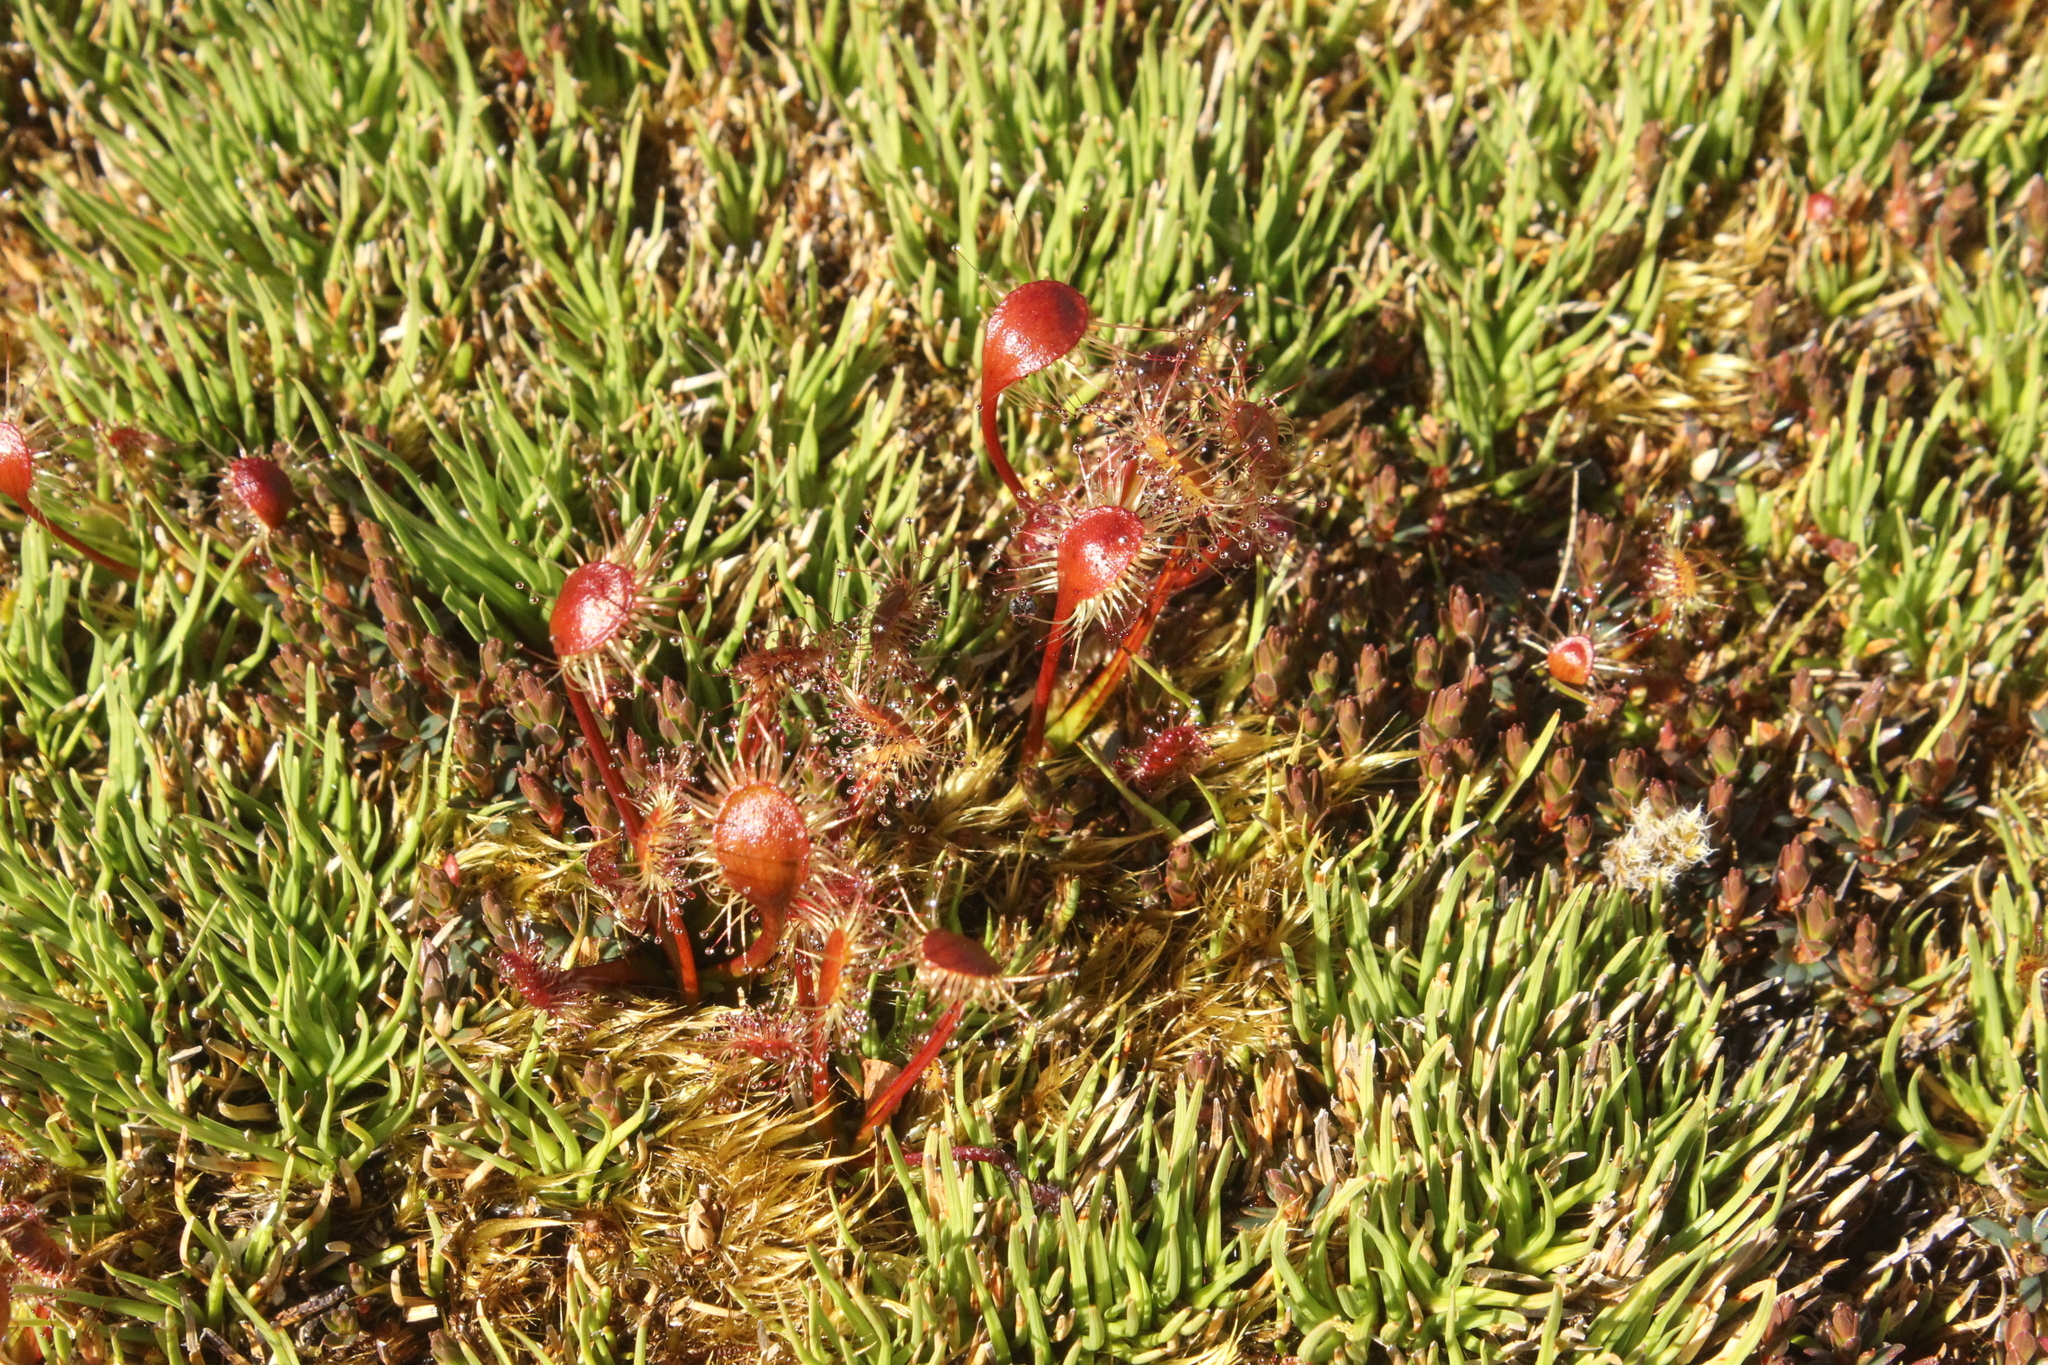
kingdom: Plantae
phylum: Tracheophyta
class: Magnoliopsida
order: Caryophyllales
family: Droseraceae
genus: Drosera
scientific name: Drosera stenopetala
